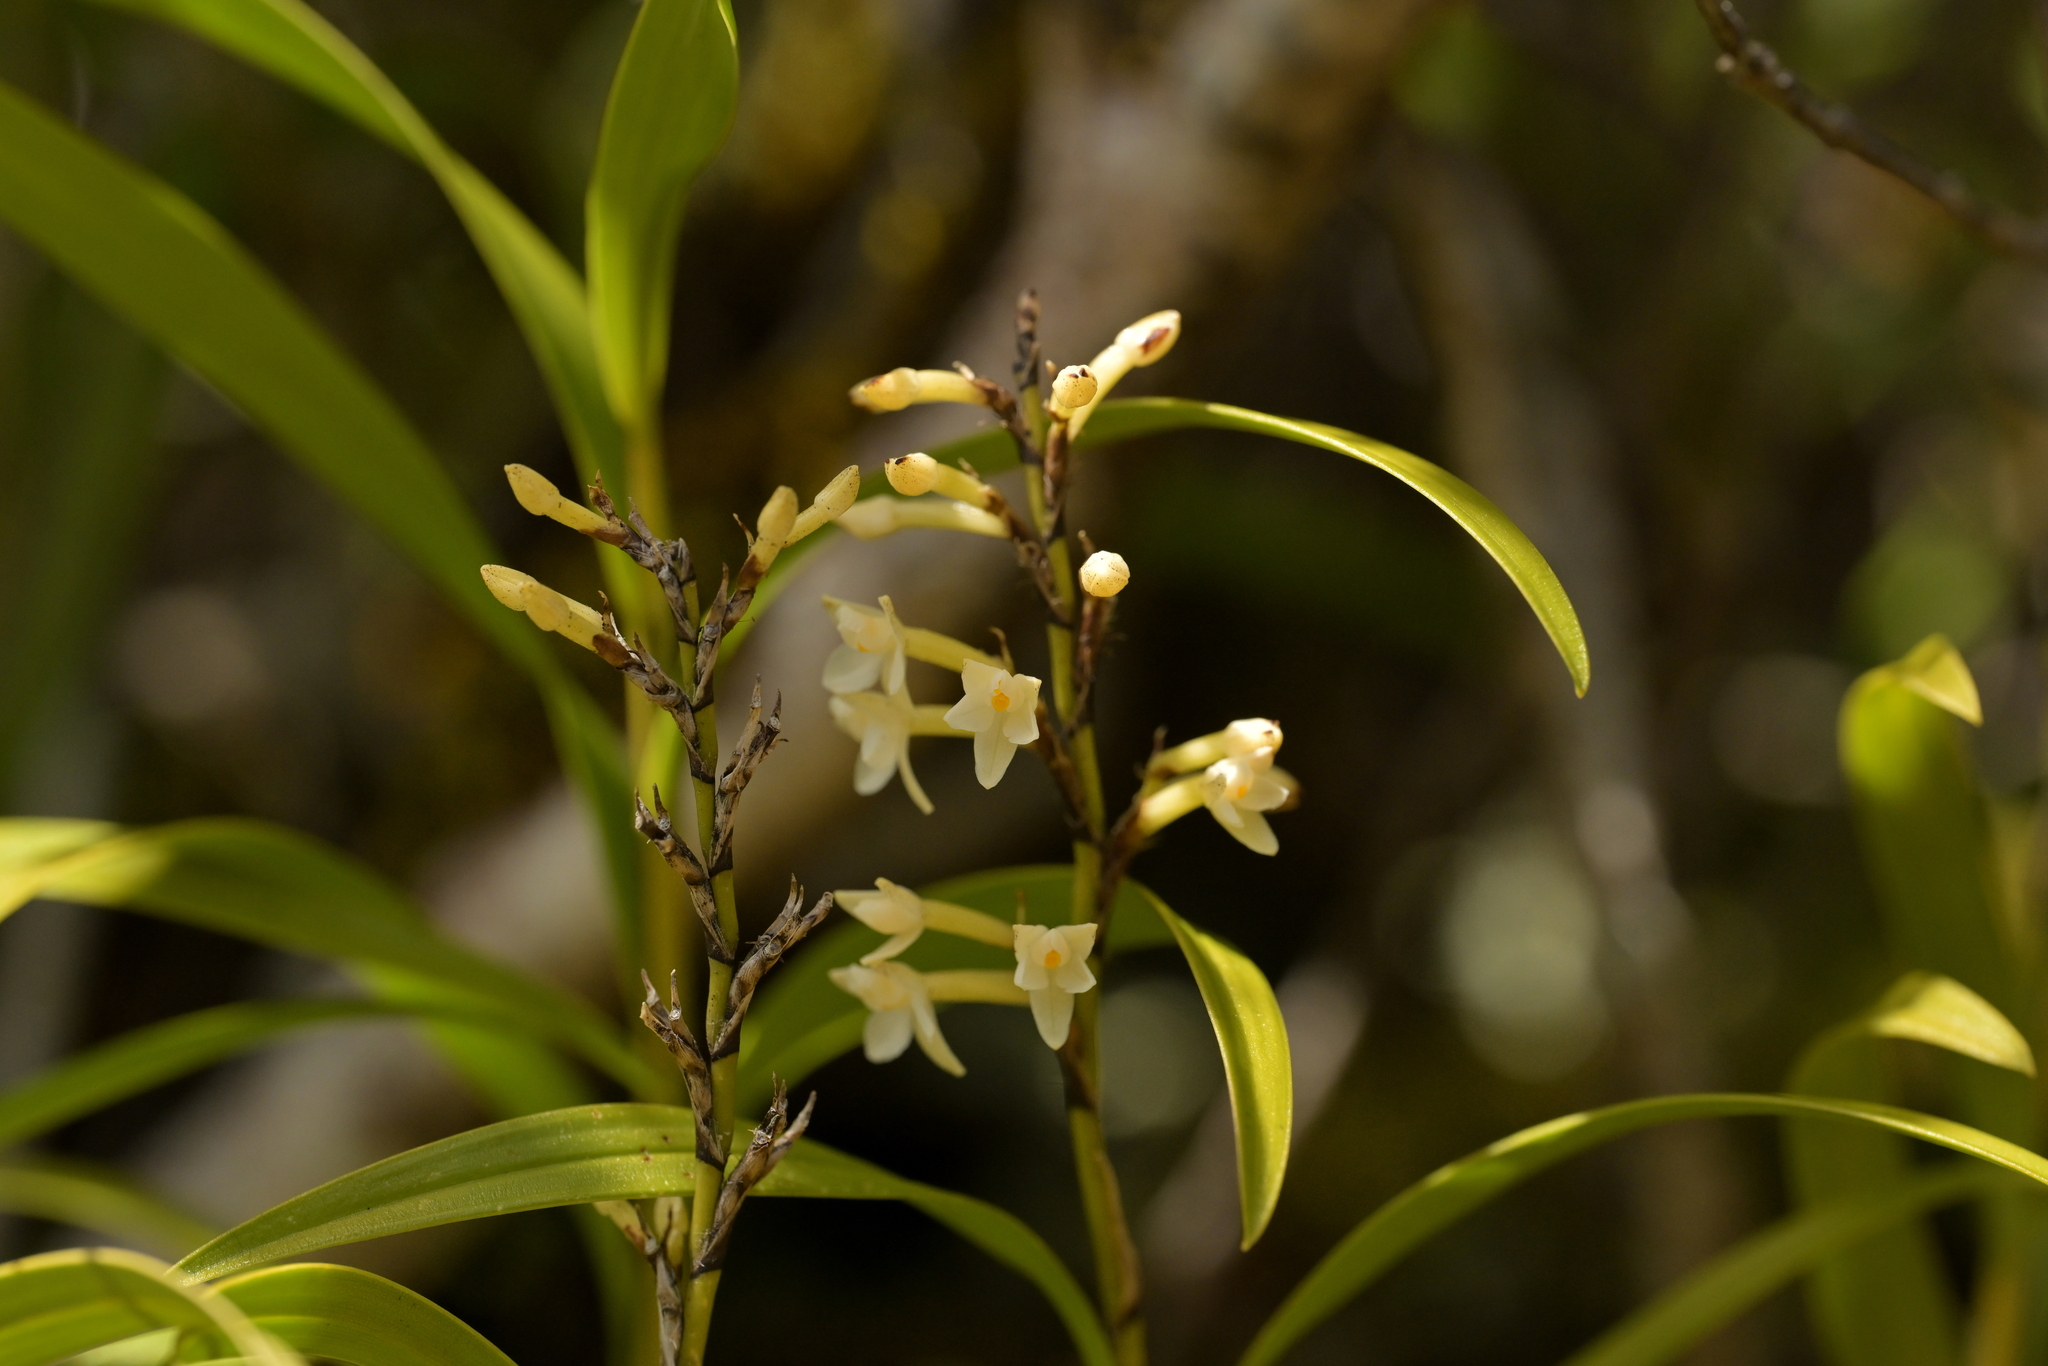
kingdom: Plantae
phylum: Tracheophyta
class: Liliopsida
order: Asparagales
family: Orchidaceae
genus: Earina
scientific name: Earina autumnalis
